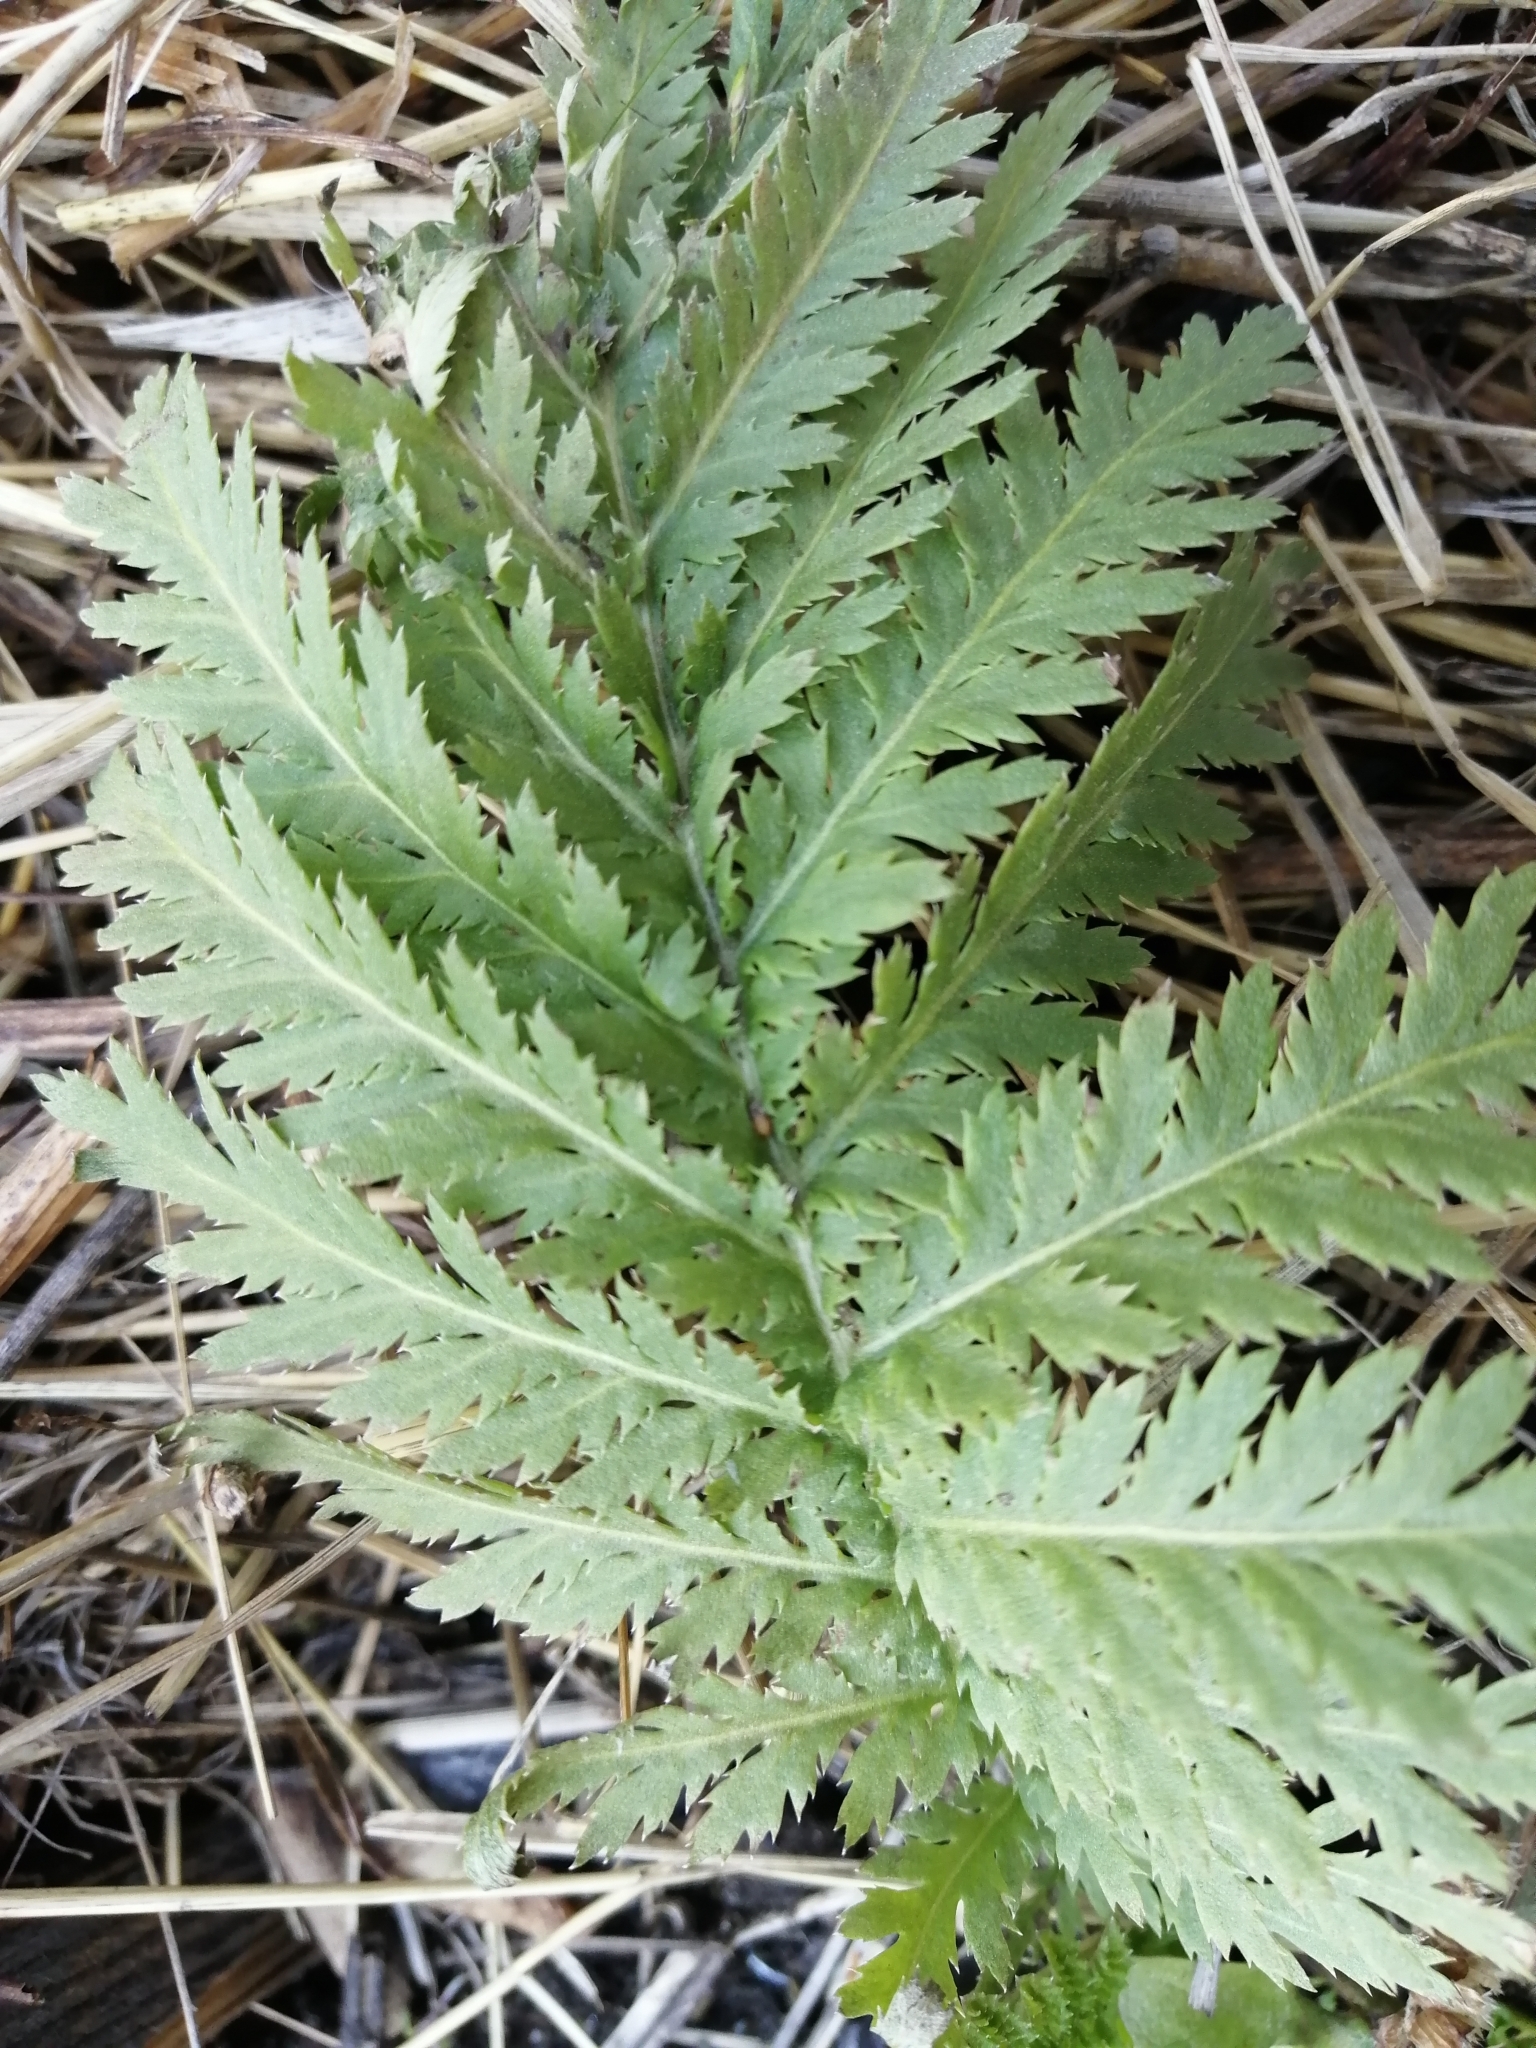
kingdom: Plantae
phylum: Tracheophyta
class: Magnoliopsida
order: Asterales
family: Asteraceae
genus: Tanacetum
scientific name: Tanacetum vulgare
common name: Common tansy
